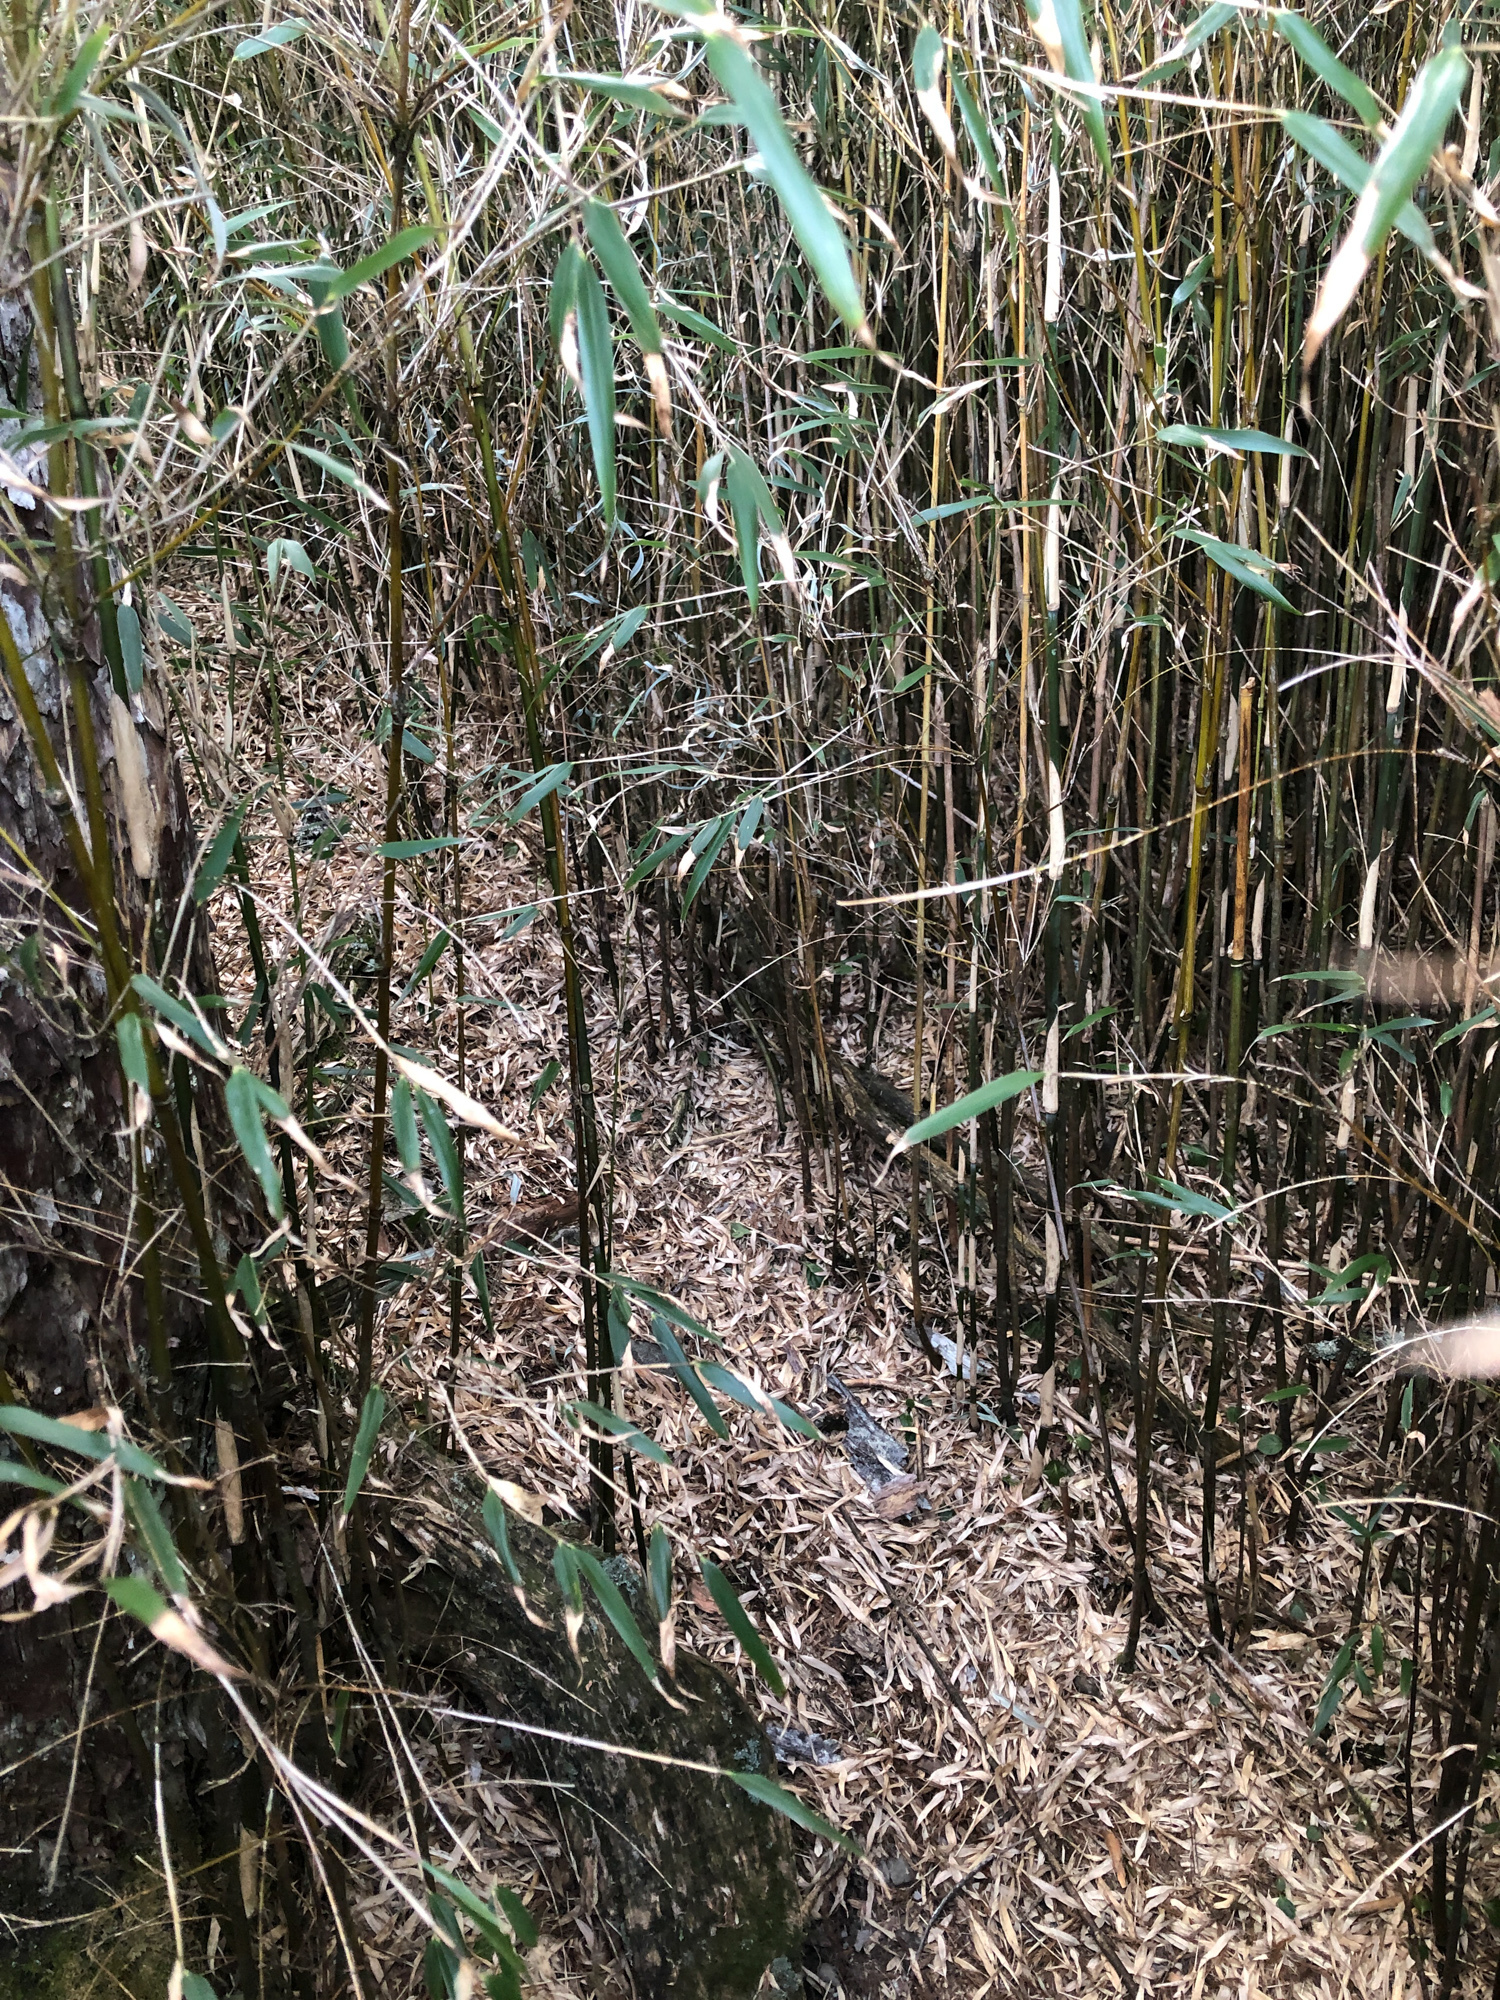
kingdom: Plantae
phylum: Tracheophyta
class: Liliopsida
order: Poales
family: Poaceae
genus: Yushania
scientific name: Yushania niitakayamensis
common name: Yushan cane
